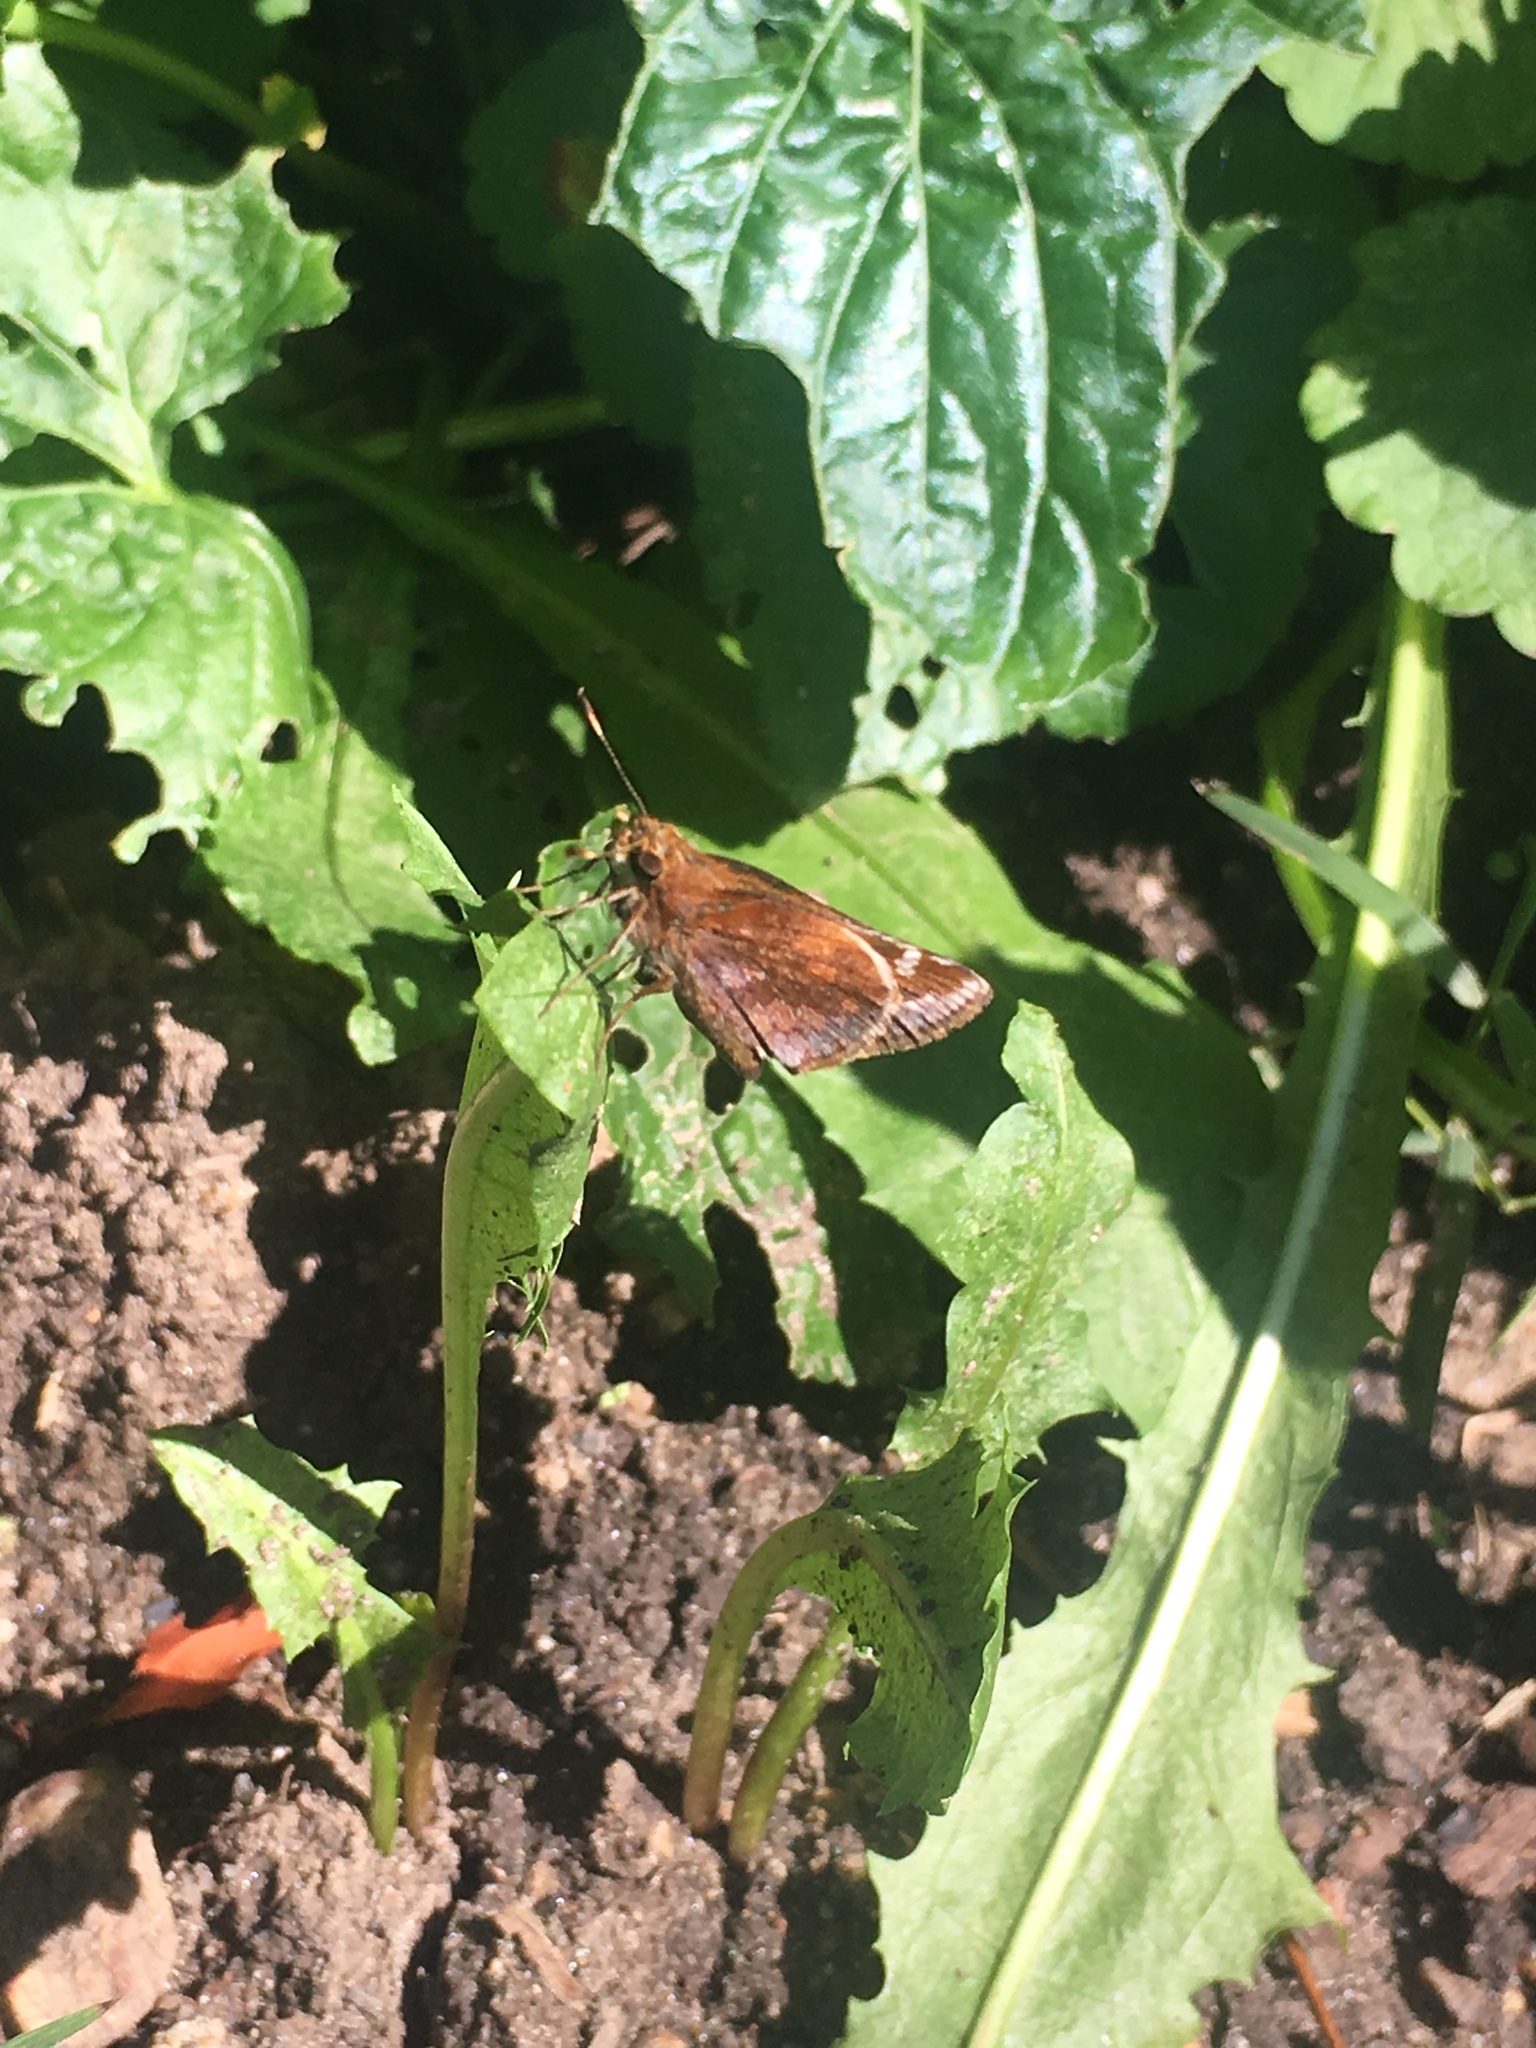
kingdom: Animalia
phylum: Arthropoda
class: Insecta
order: Lepidoptera
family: Hesperiidae
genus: Lon
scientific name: Lon zabulon
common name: Zabulon skipper
